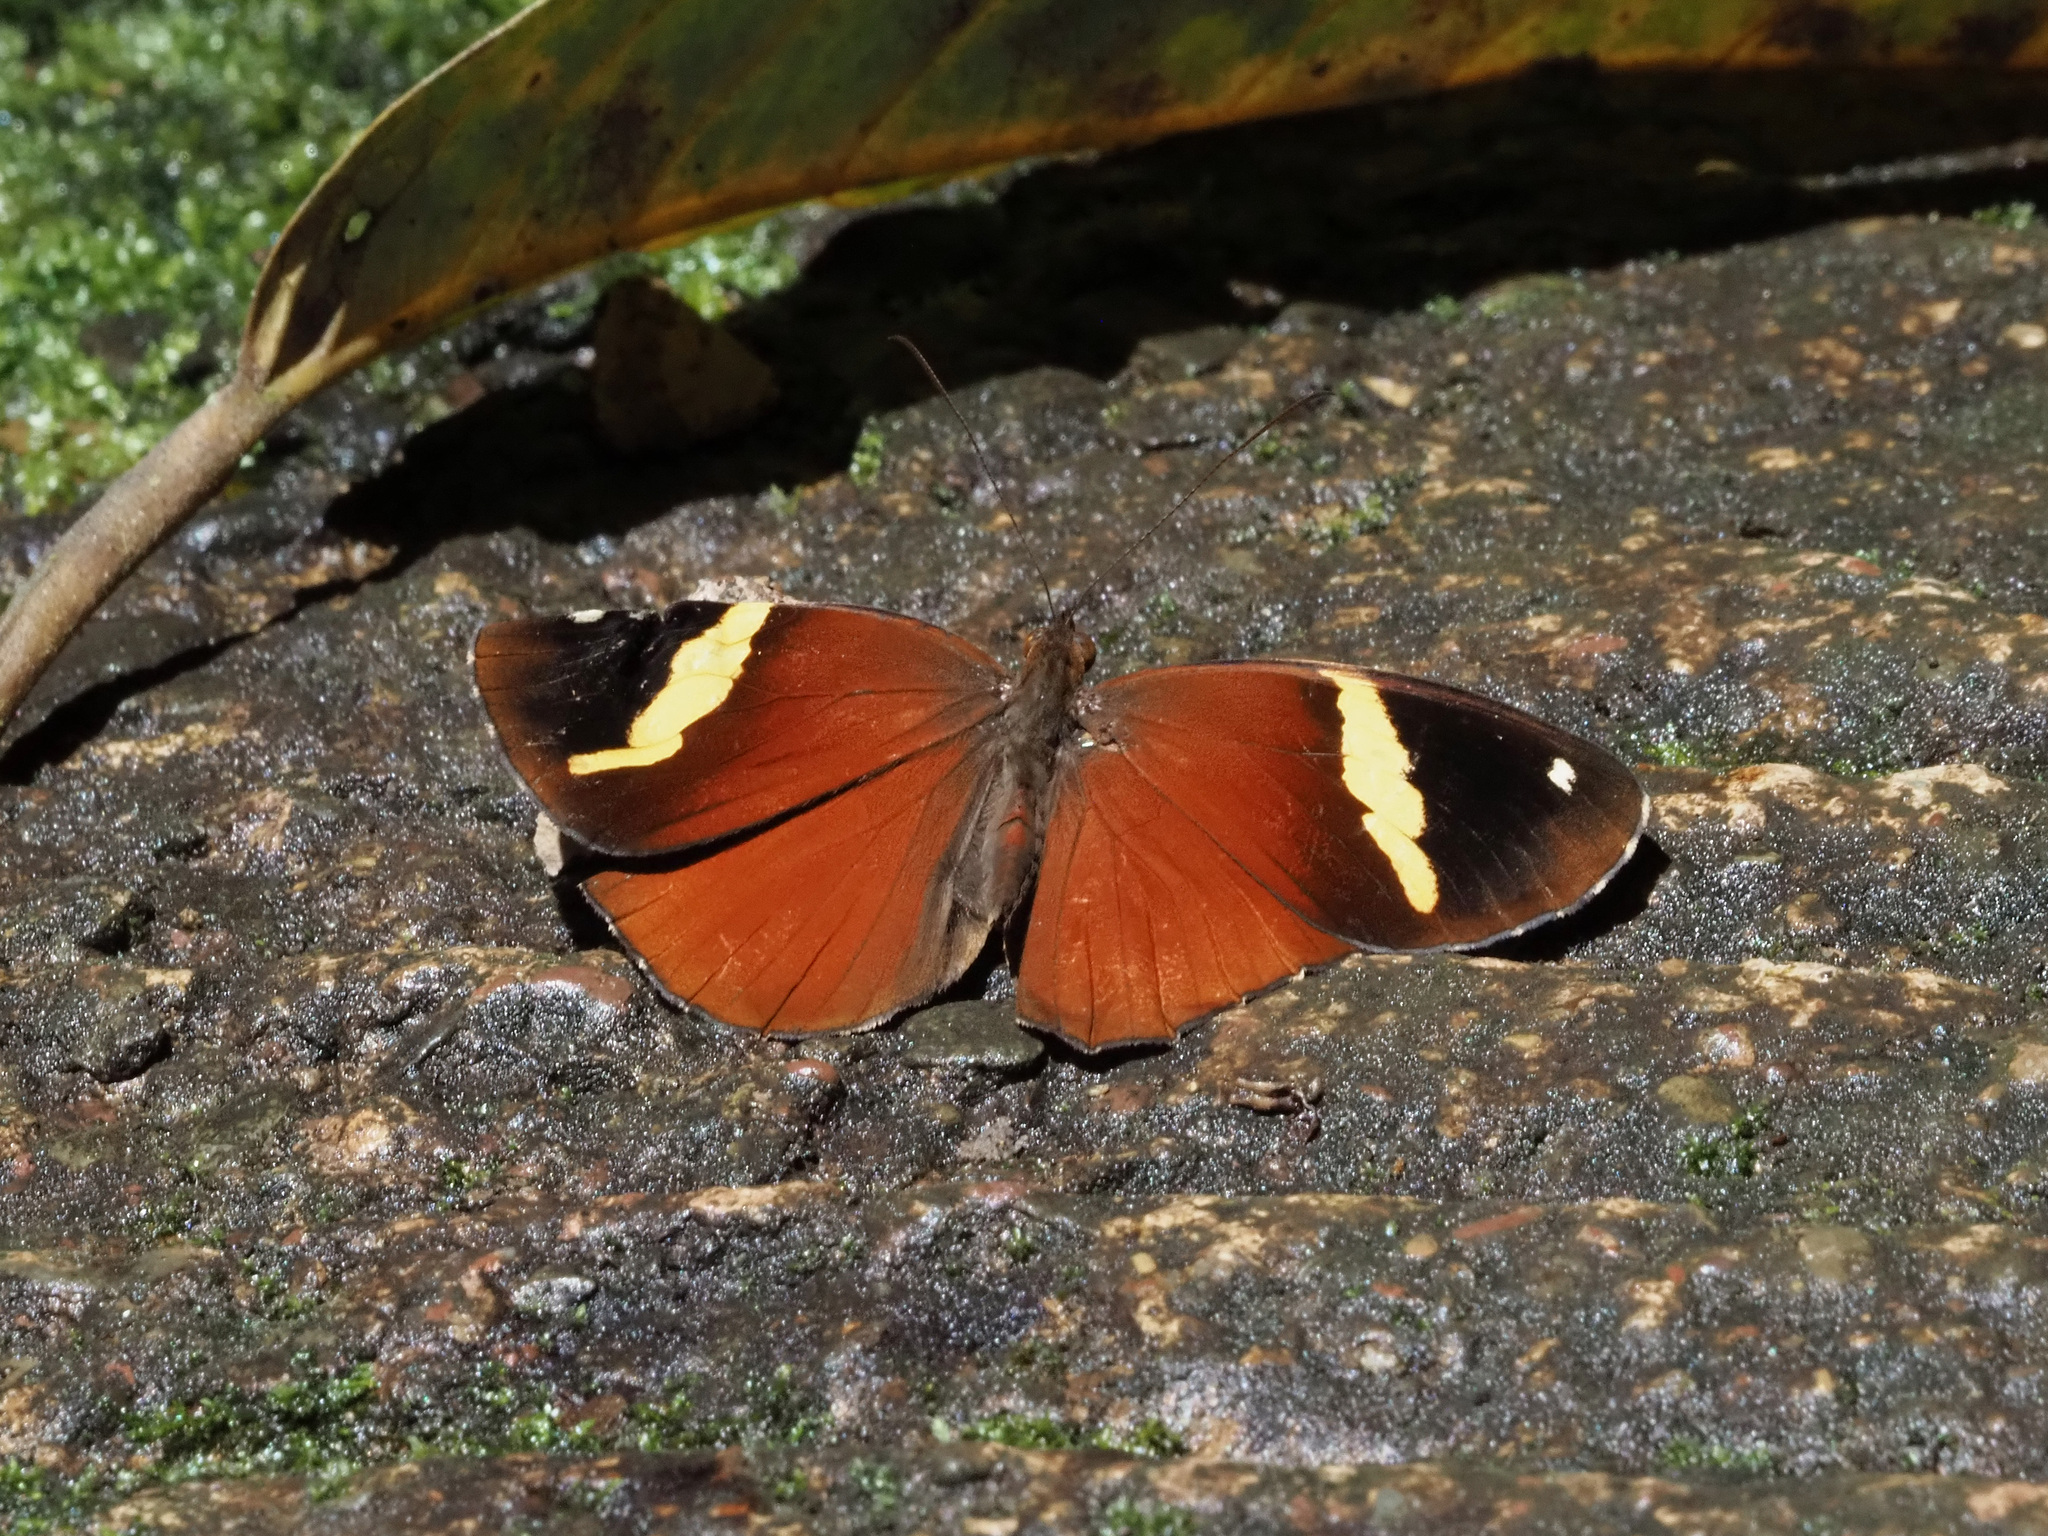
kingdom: Animalia
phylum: Arthropoda
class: Insecta
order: Lepidoptera
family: Nymphalidae
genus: Xanthotaenia
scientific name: Xanthotaenia busiris
